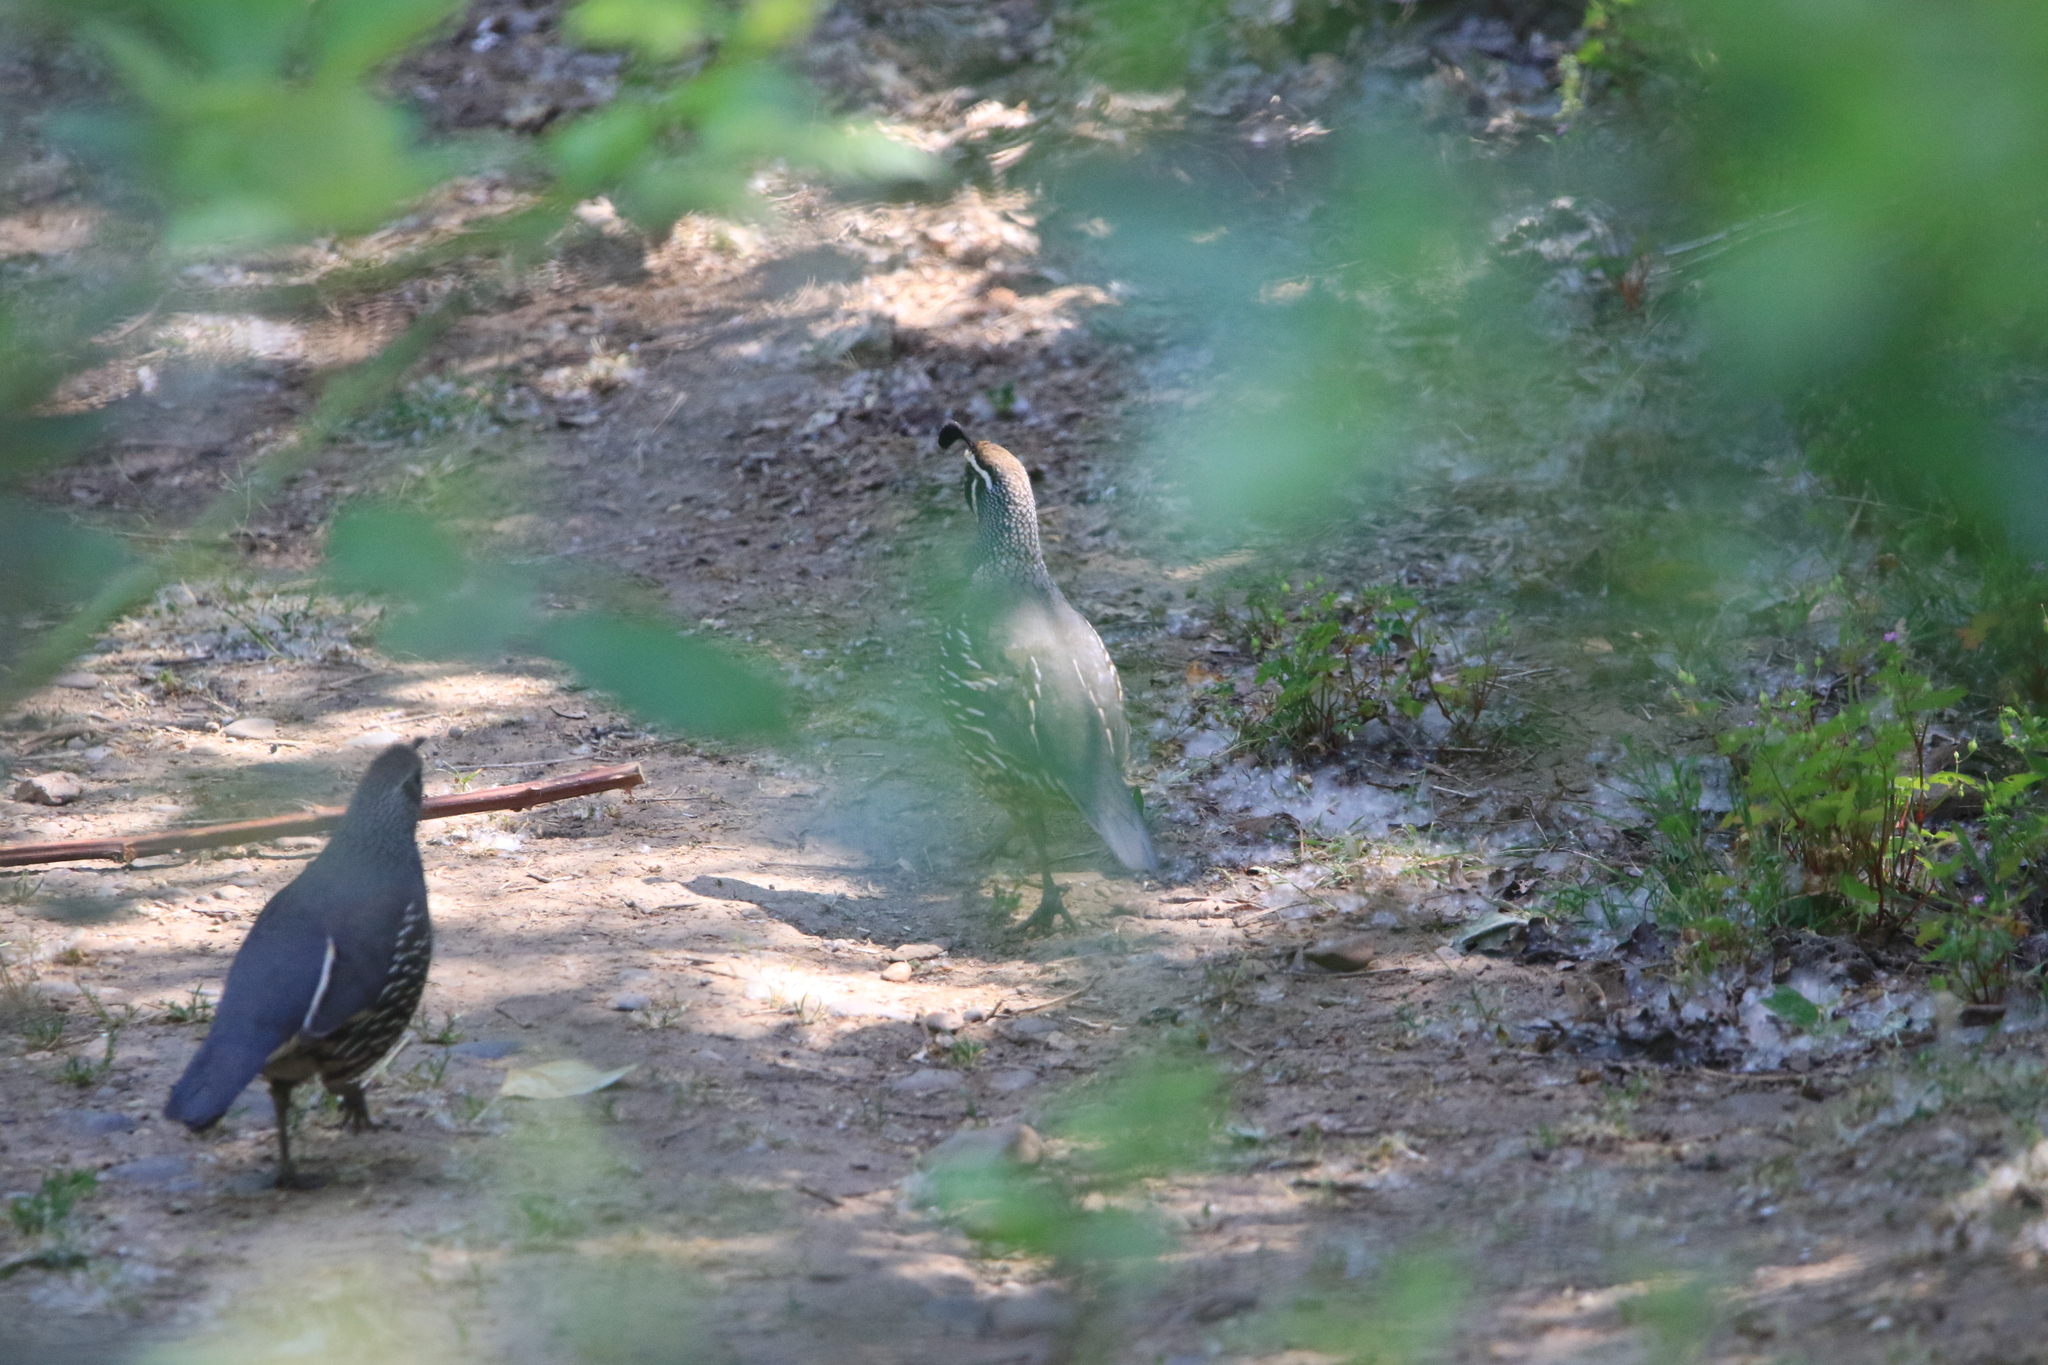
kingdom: Animalia
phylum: Chordata
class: Aves
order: Galliformes
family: Odontophoridae
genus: Callipepla
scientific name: Callipepla californica
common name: California quail
